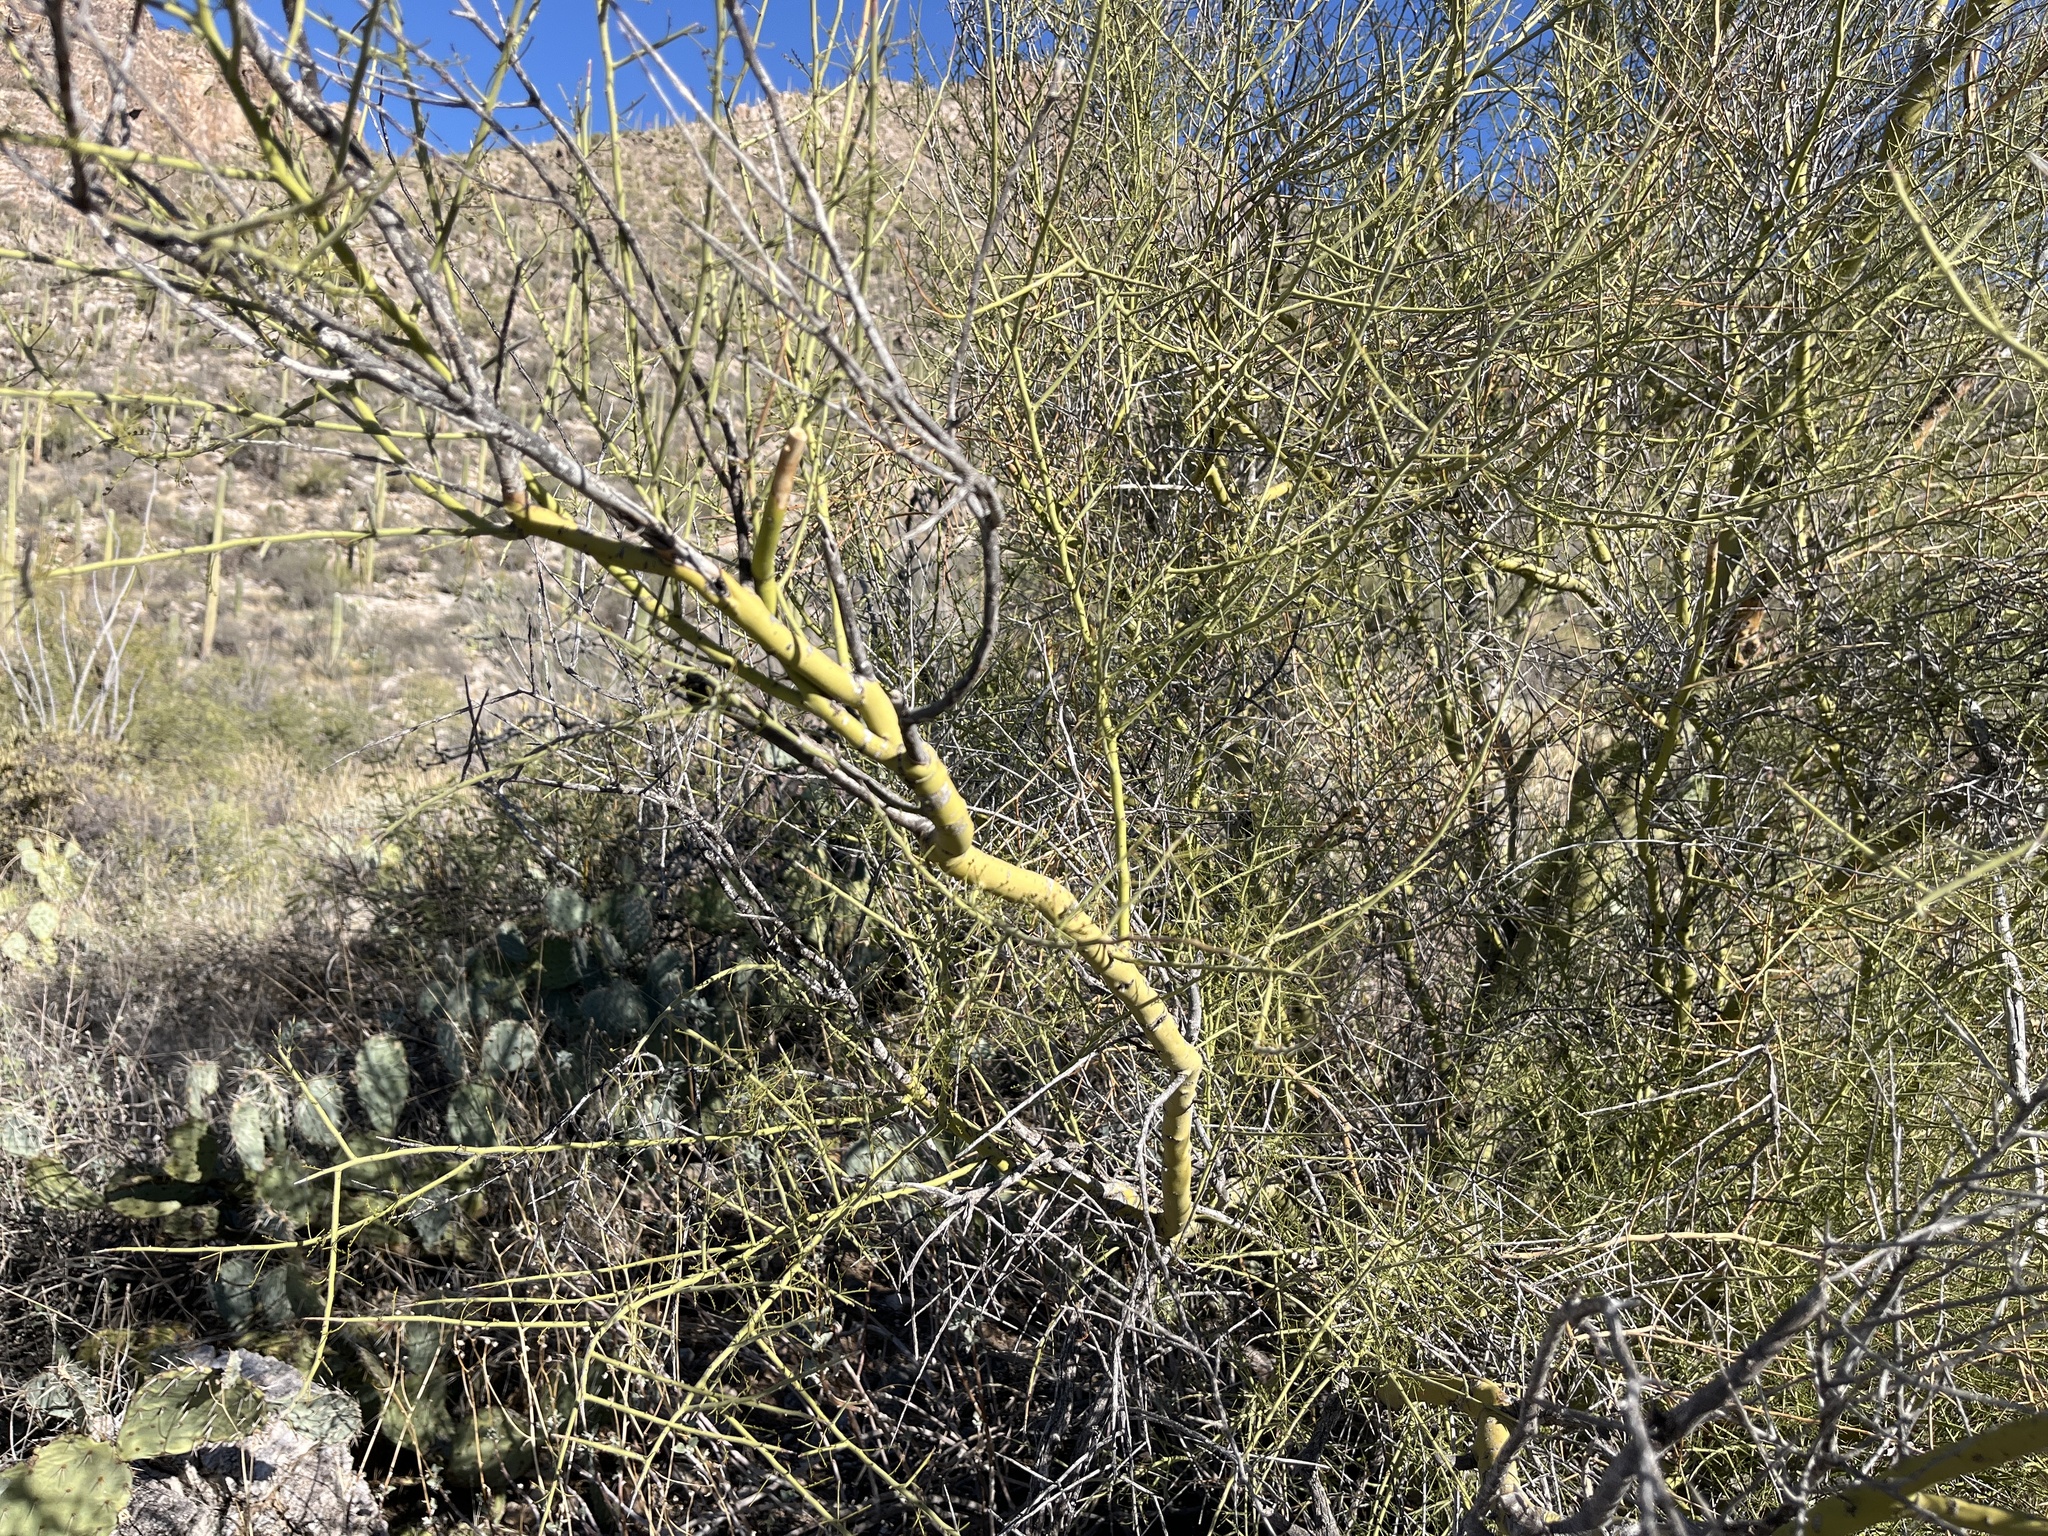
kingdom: Plantae
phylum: Tracheophyta
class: Magnoliopsida
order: Fabales
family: Fabaceae
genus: Parkinsonia
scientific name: Parkinsonia microphylla
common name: Yellow paloverde
